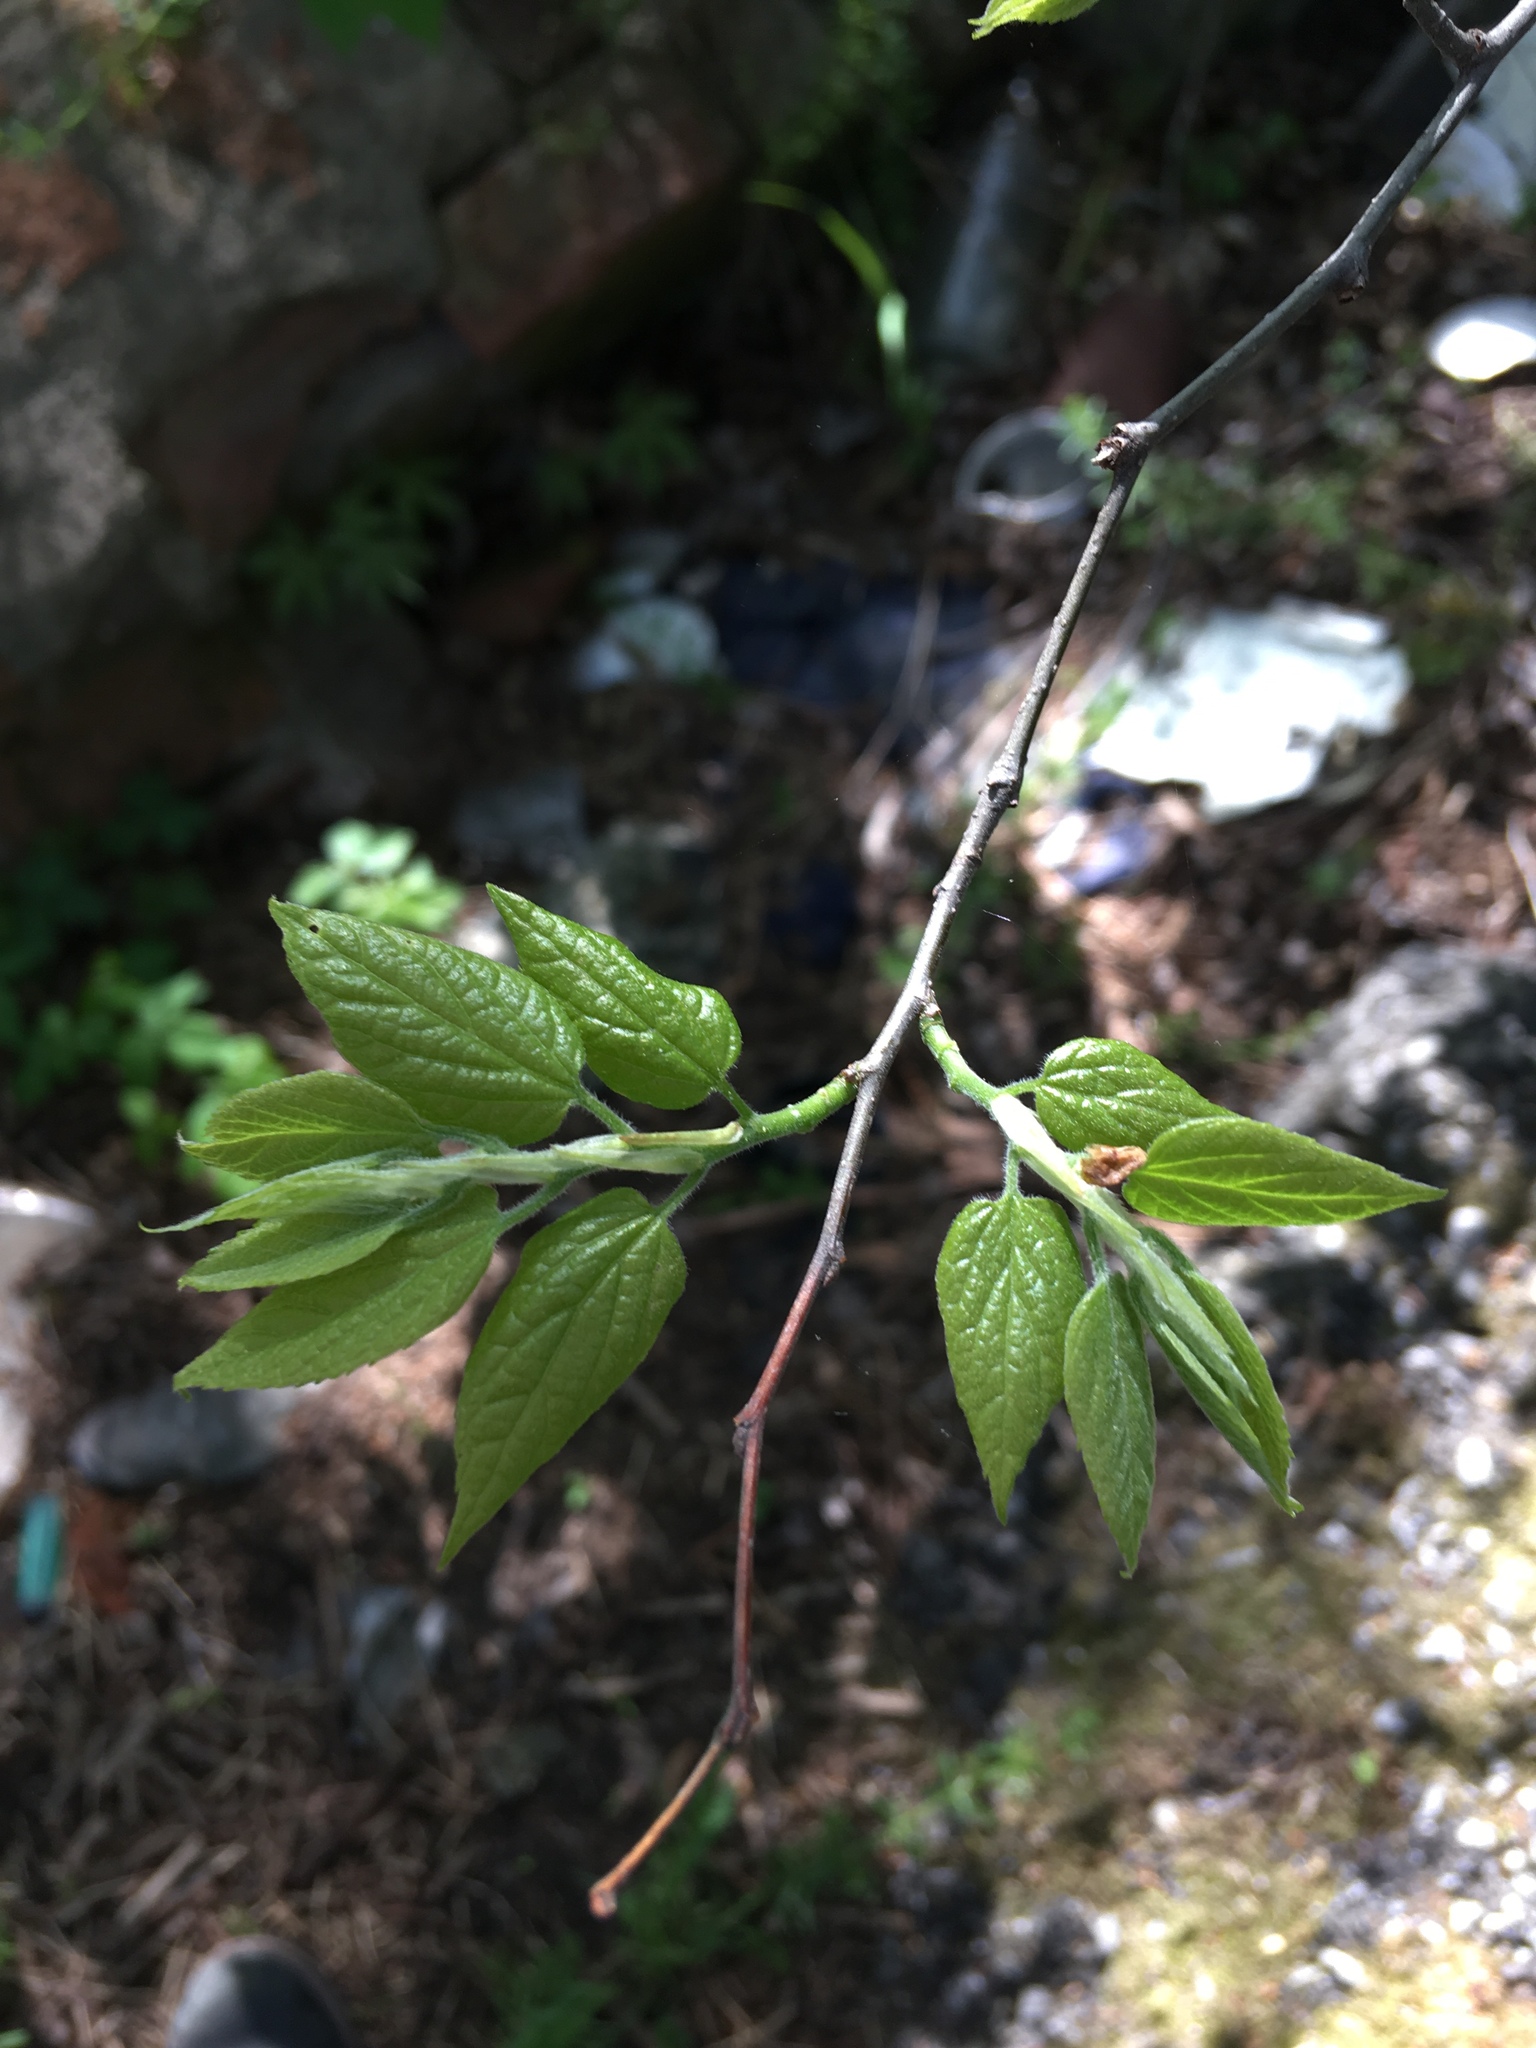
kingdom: Plantae
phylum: Tracheophyta
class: Magnoliopsida
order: Rosales
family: Cannabaceae
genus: Celtis
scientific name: Celtis occidentalis
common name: Common hackberry
